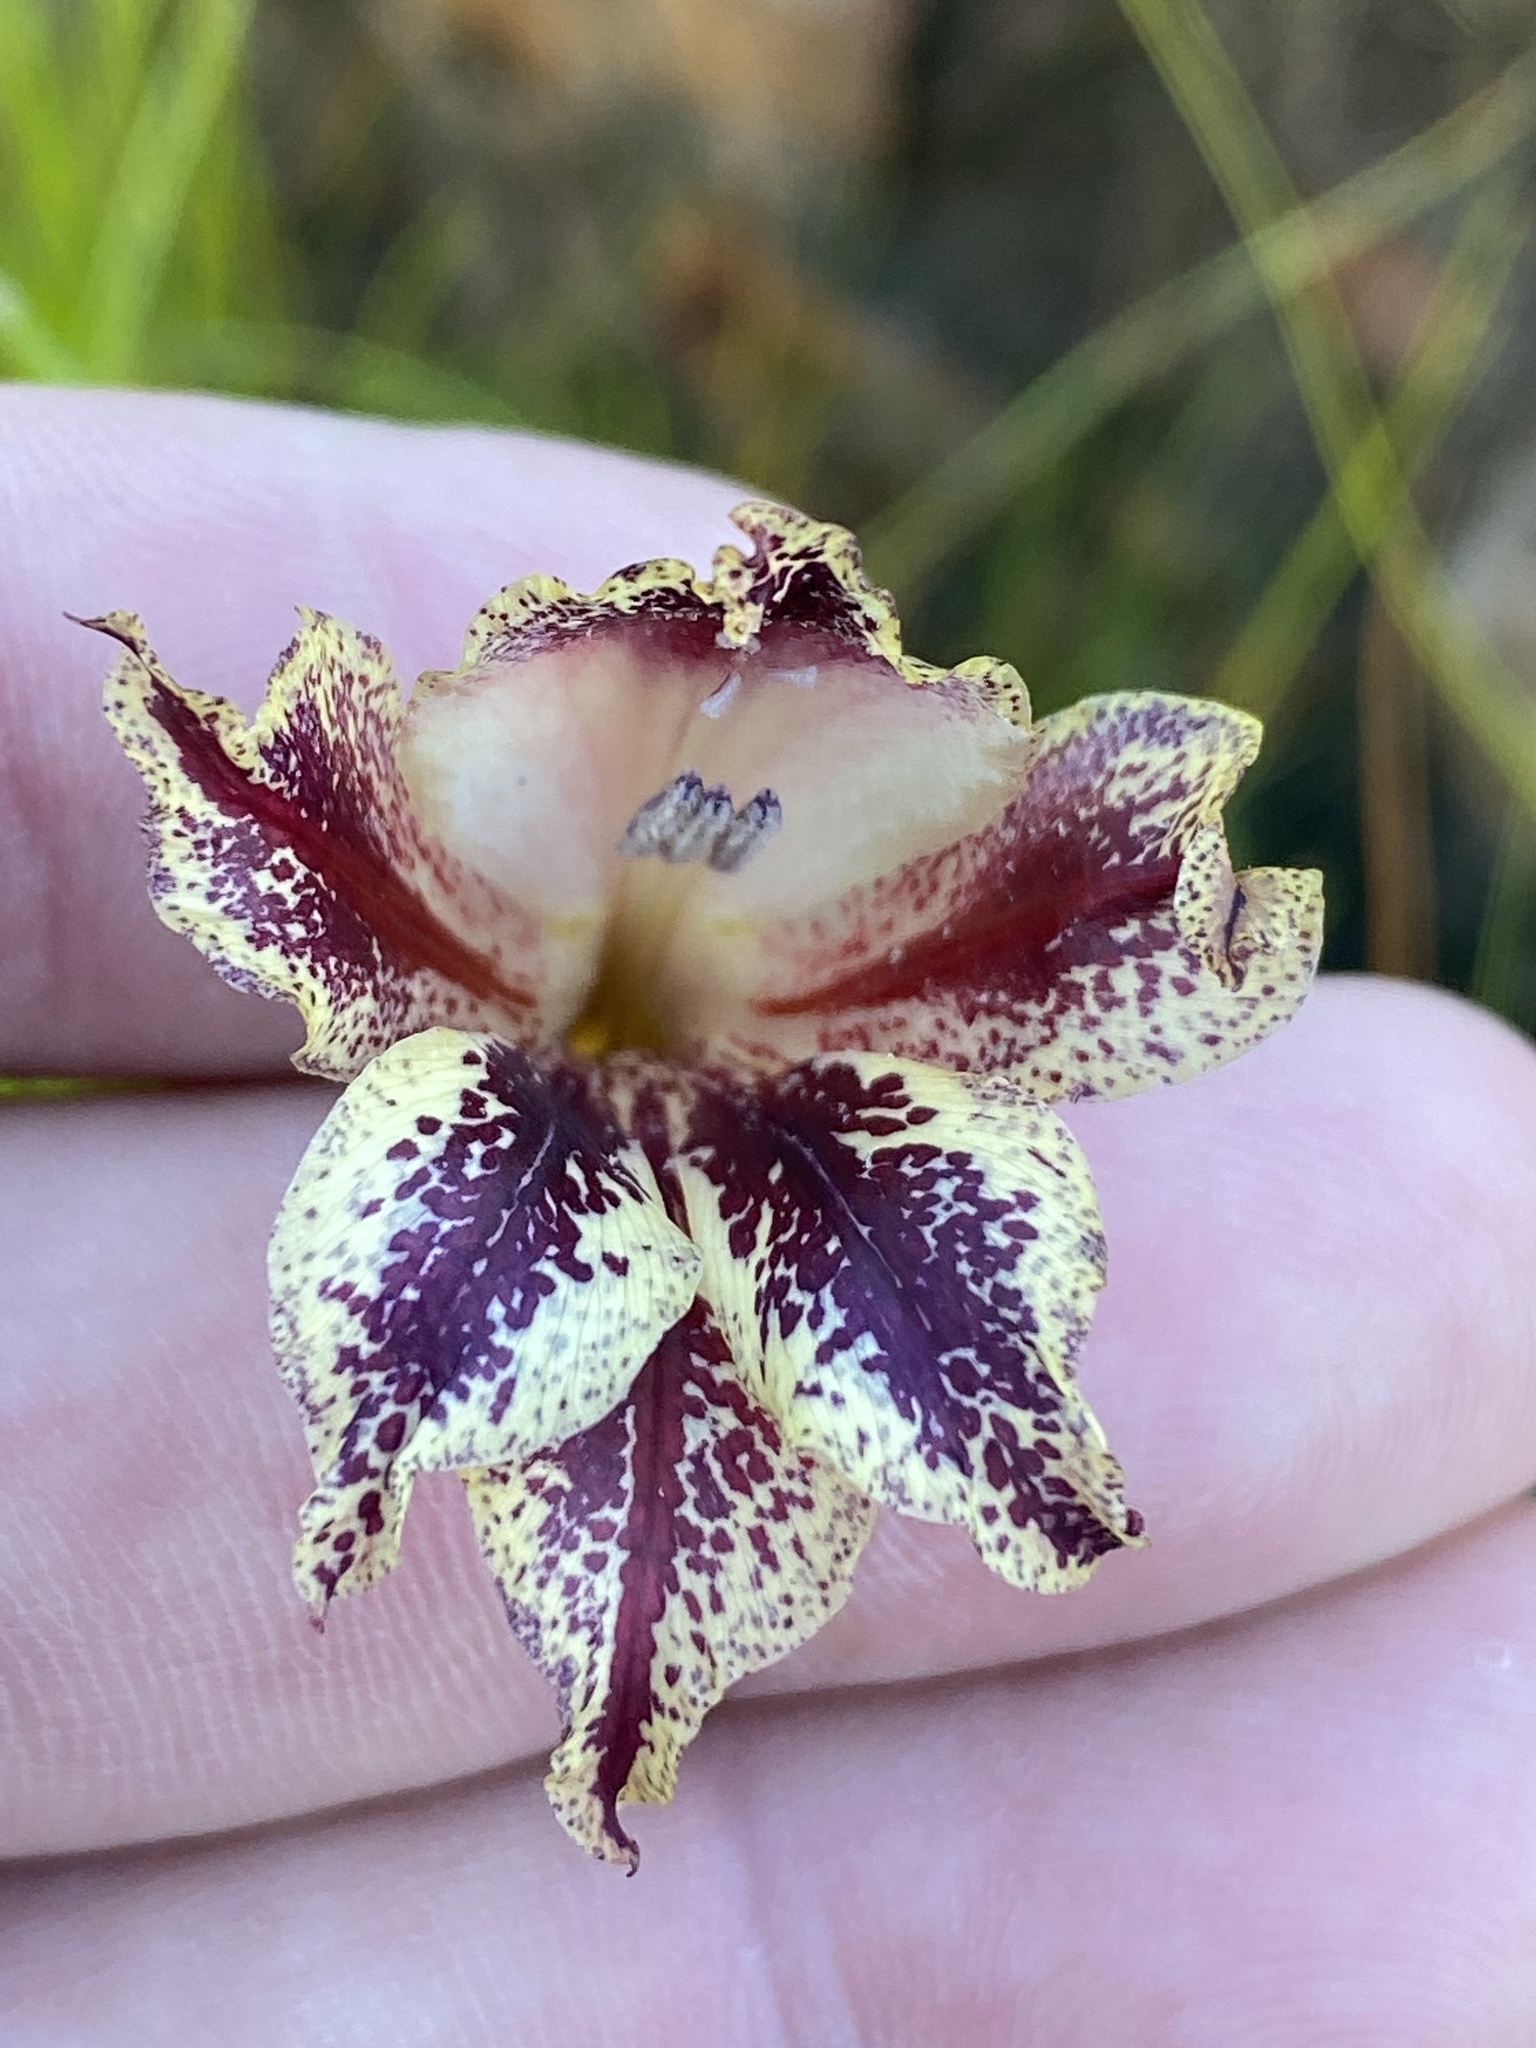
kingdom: Plantae
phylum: Tracheophyta
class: Liliopsida
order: Asparagales
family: Iridaceae
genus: Gladiolus
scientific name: Gladiolus maculatus
